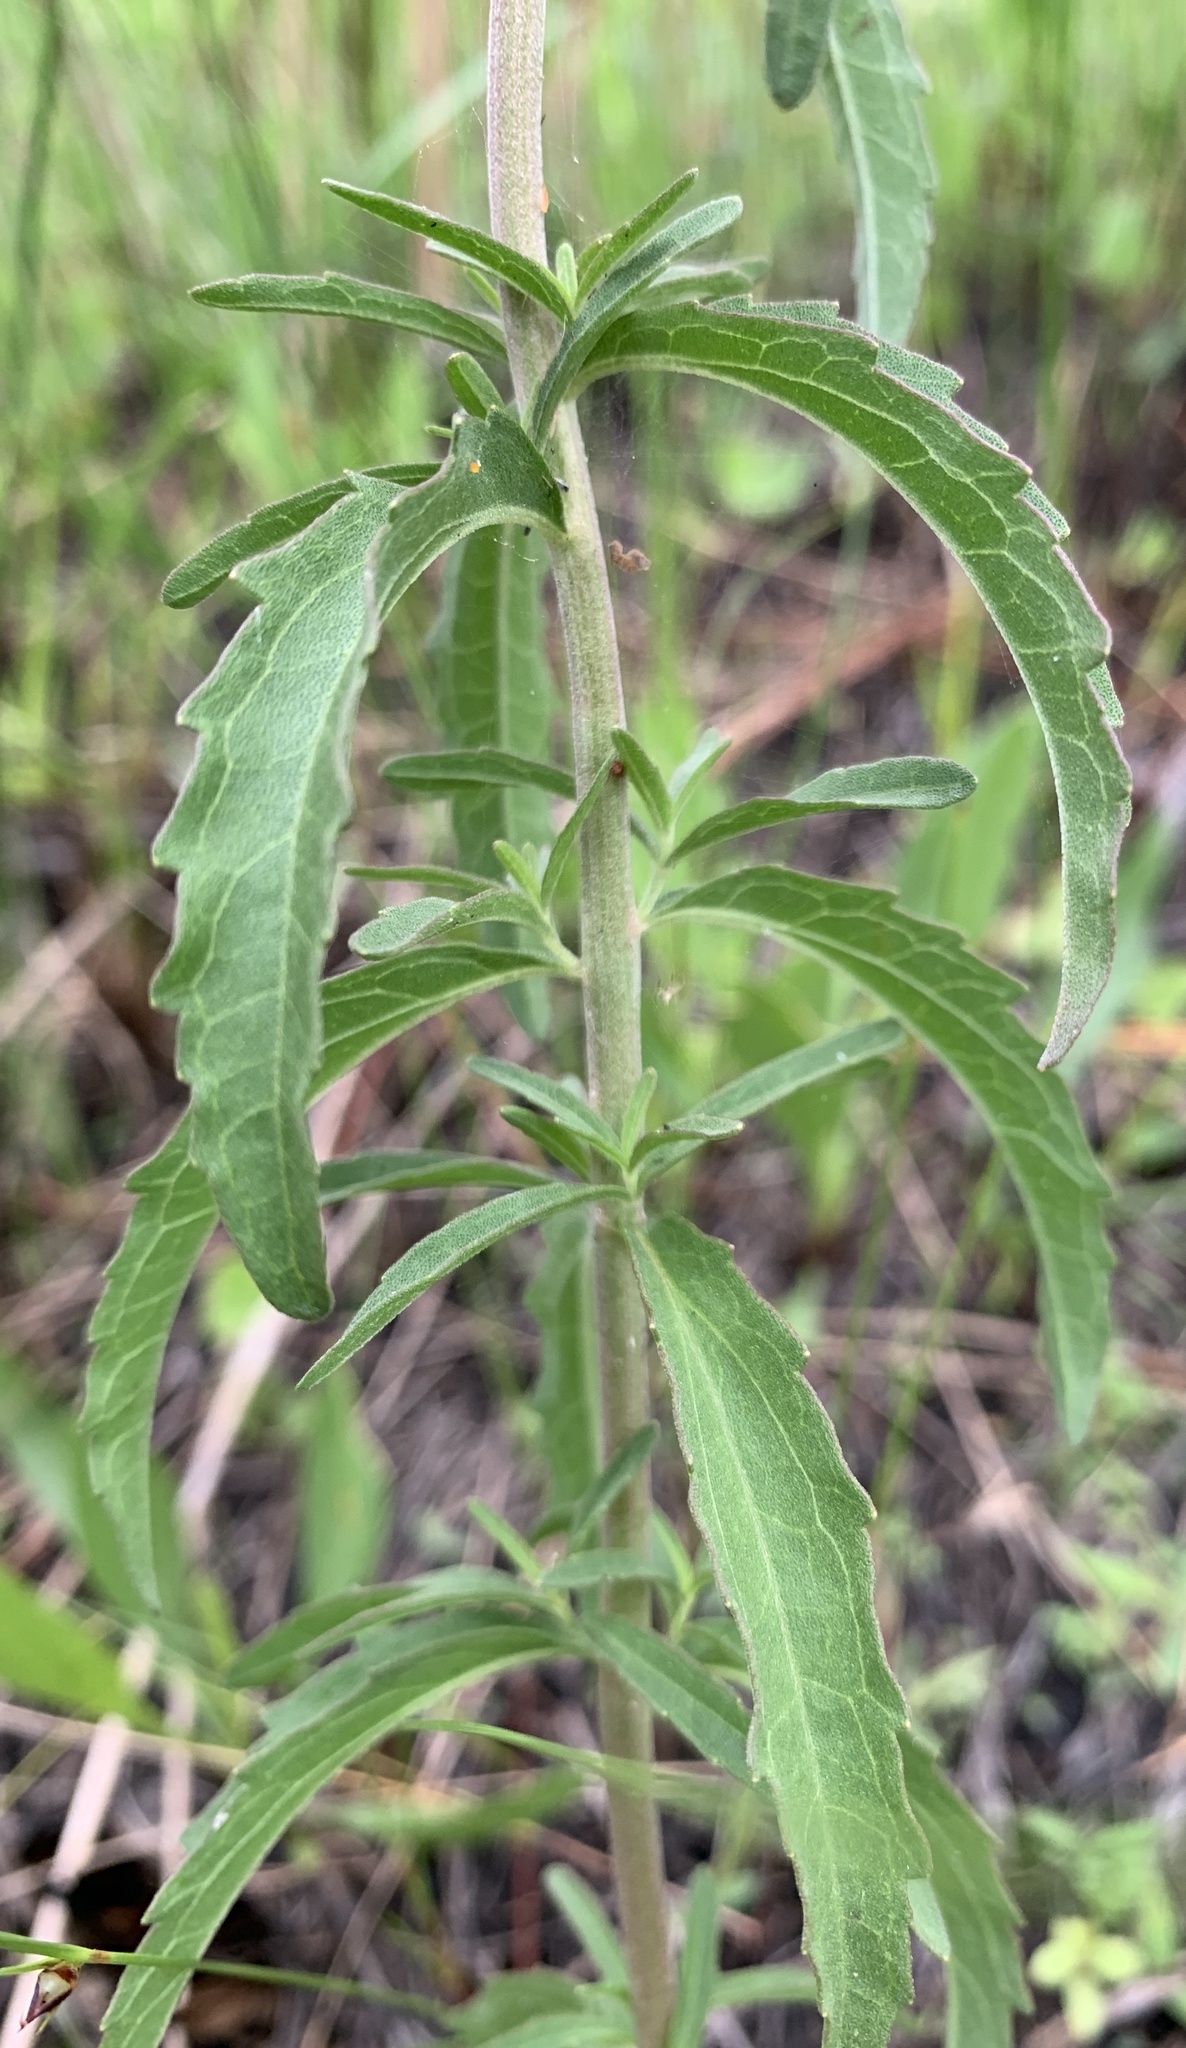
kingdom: Plantae
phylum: Tracheophyta
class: Magnoliopsida
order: Asterales
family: Asteraceae
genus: Eupatorium
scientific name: Eupatorium mohrii
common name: Mohr's thoroughwort
